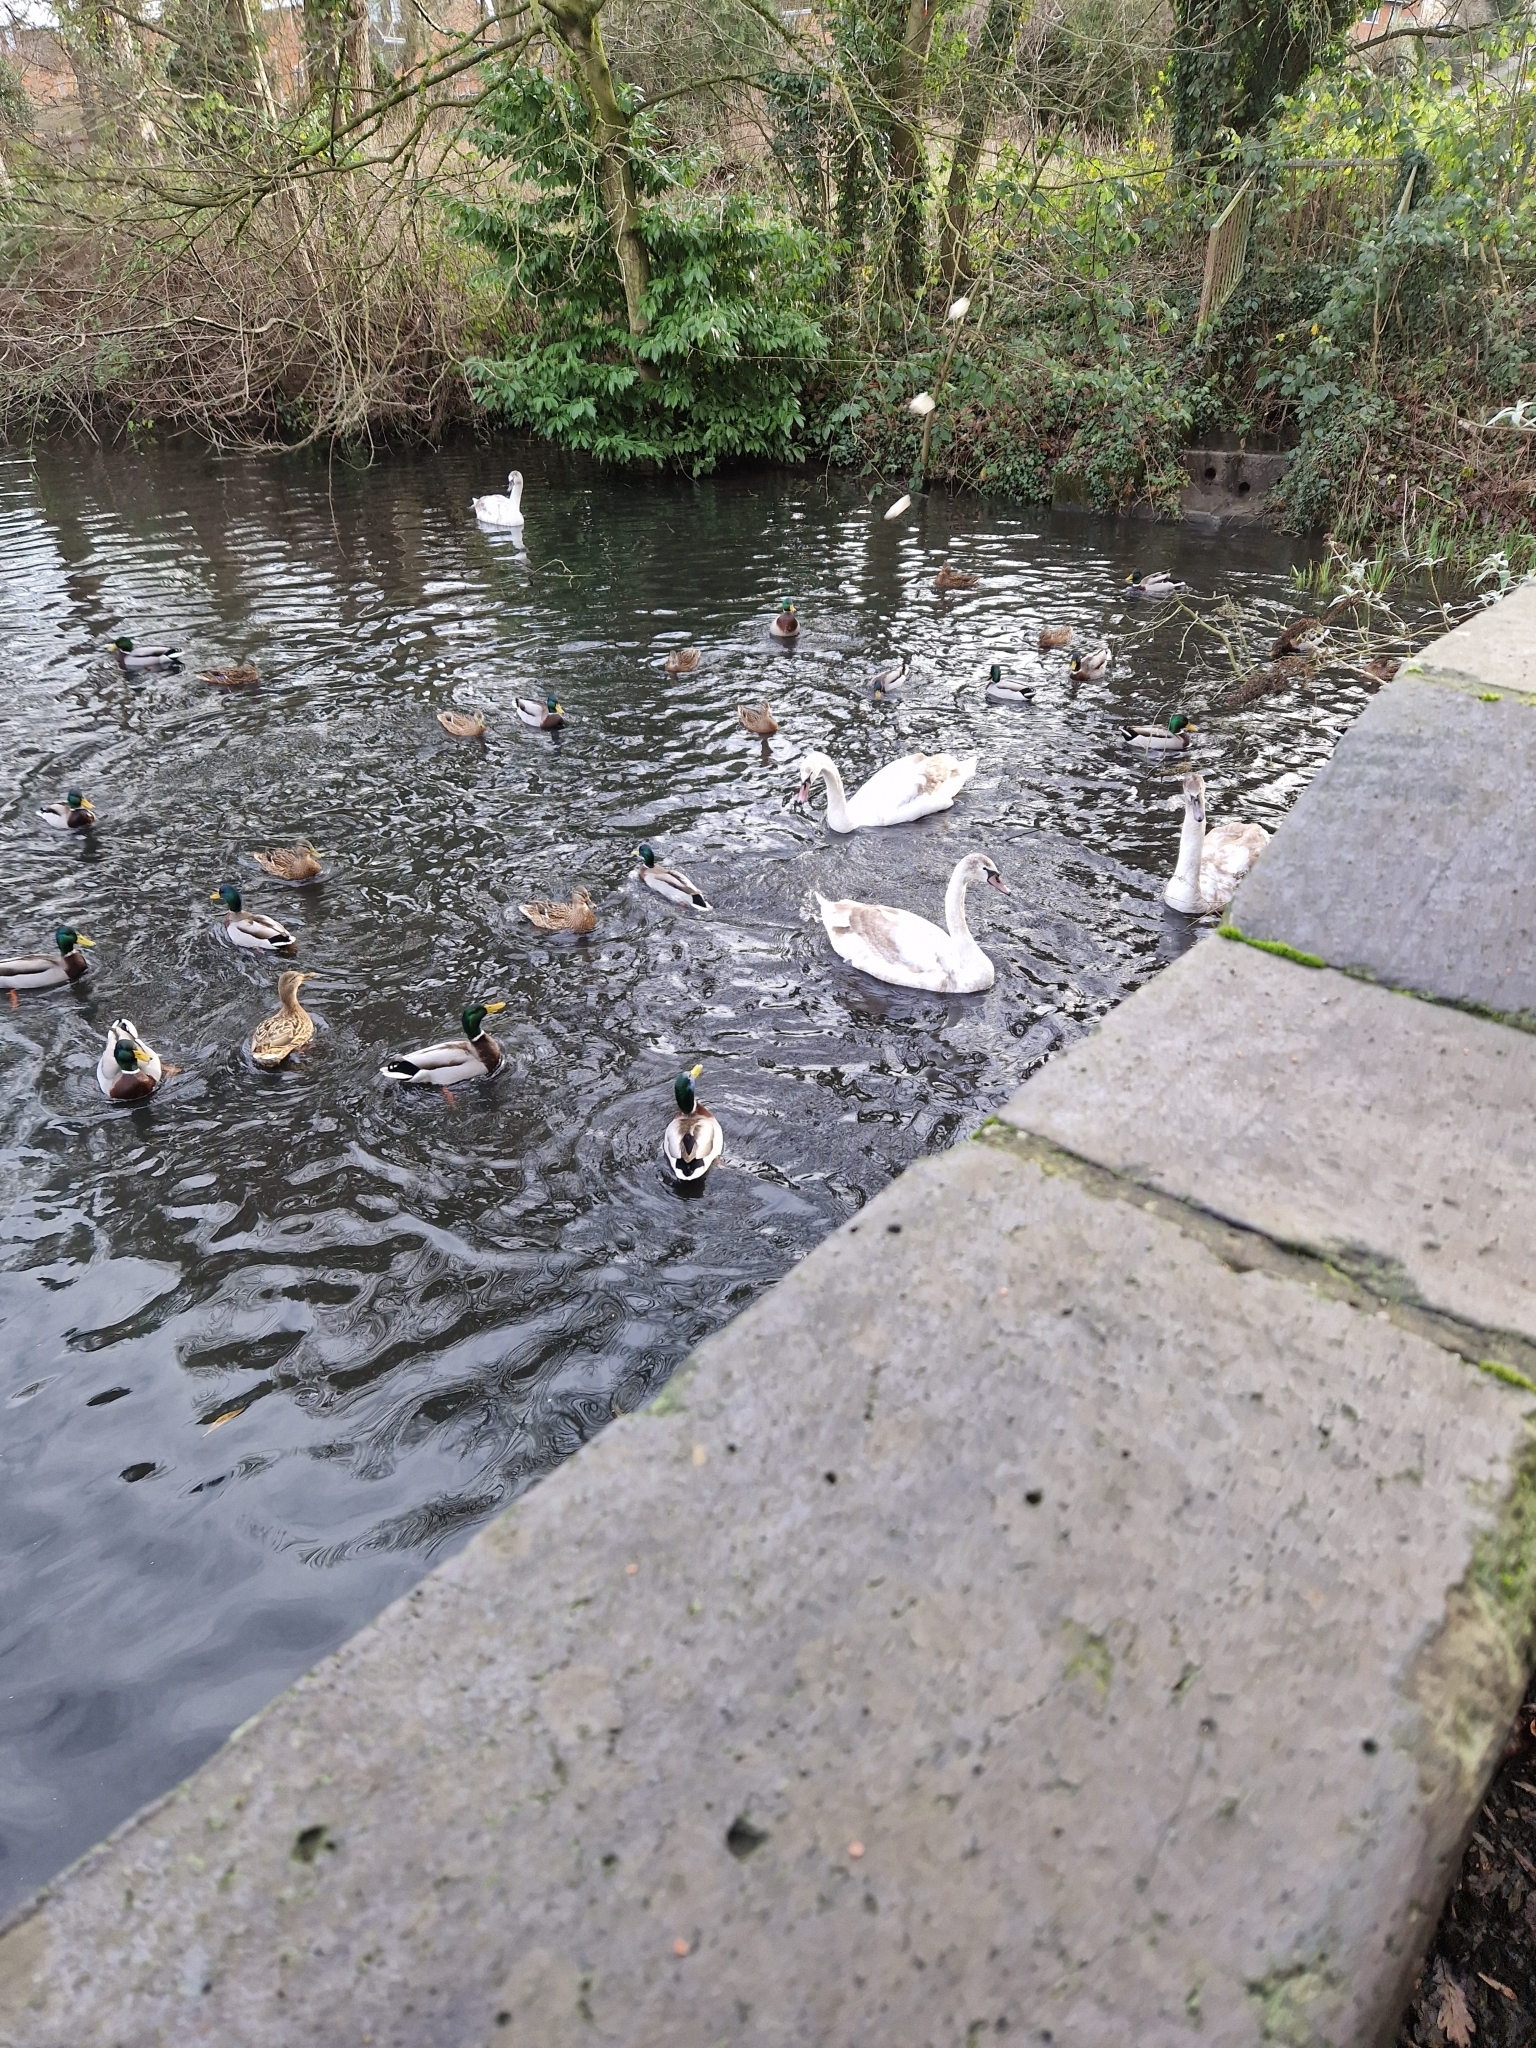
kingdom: Animalia
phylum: Chordata
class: Aves
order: Anseriformes
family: Anatidae
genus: Anas
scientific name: Anas platyrhynchos
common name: Mallard
